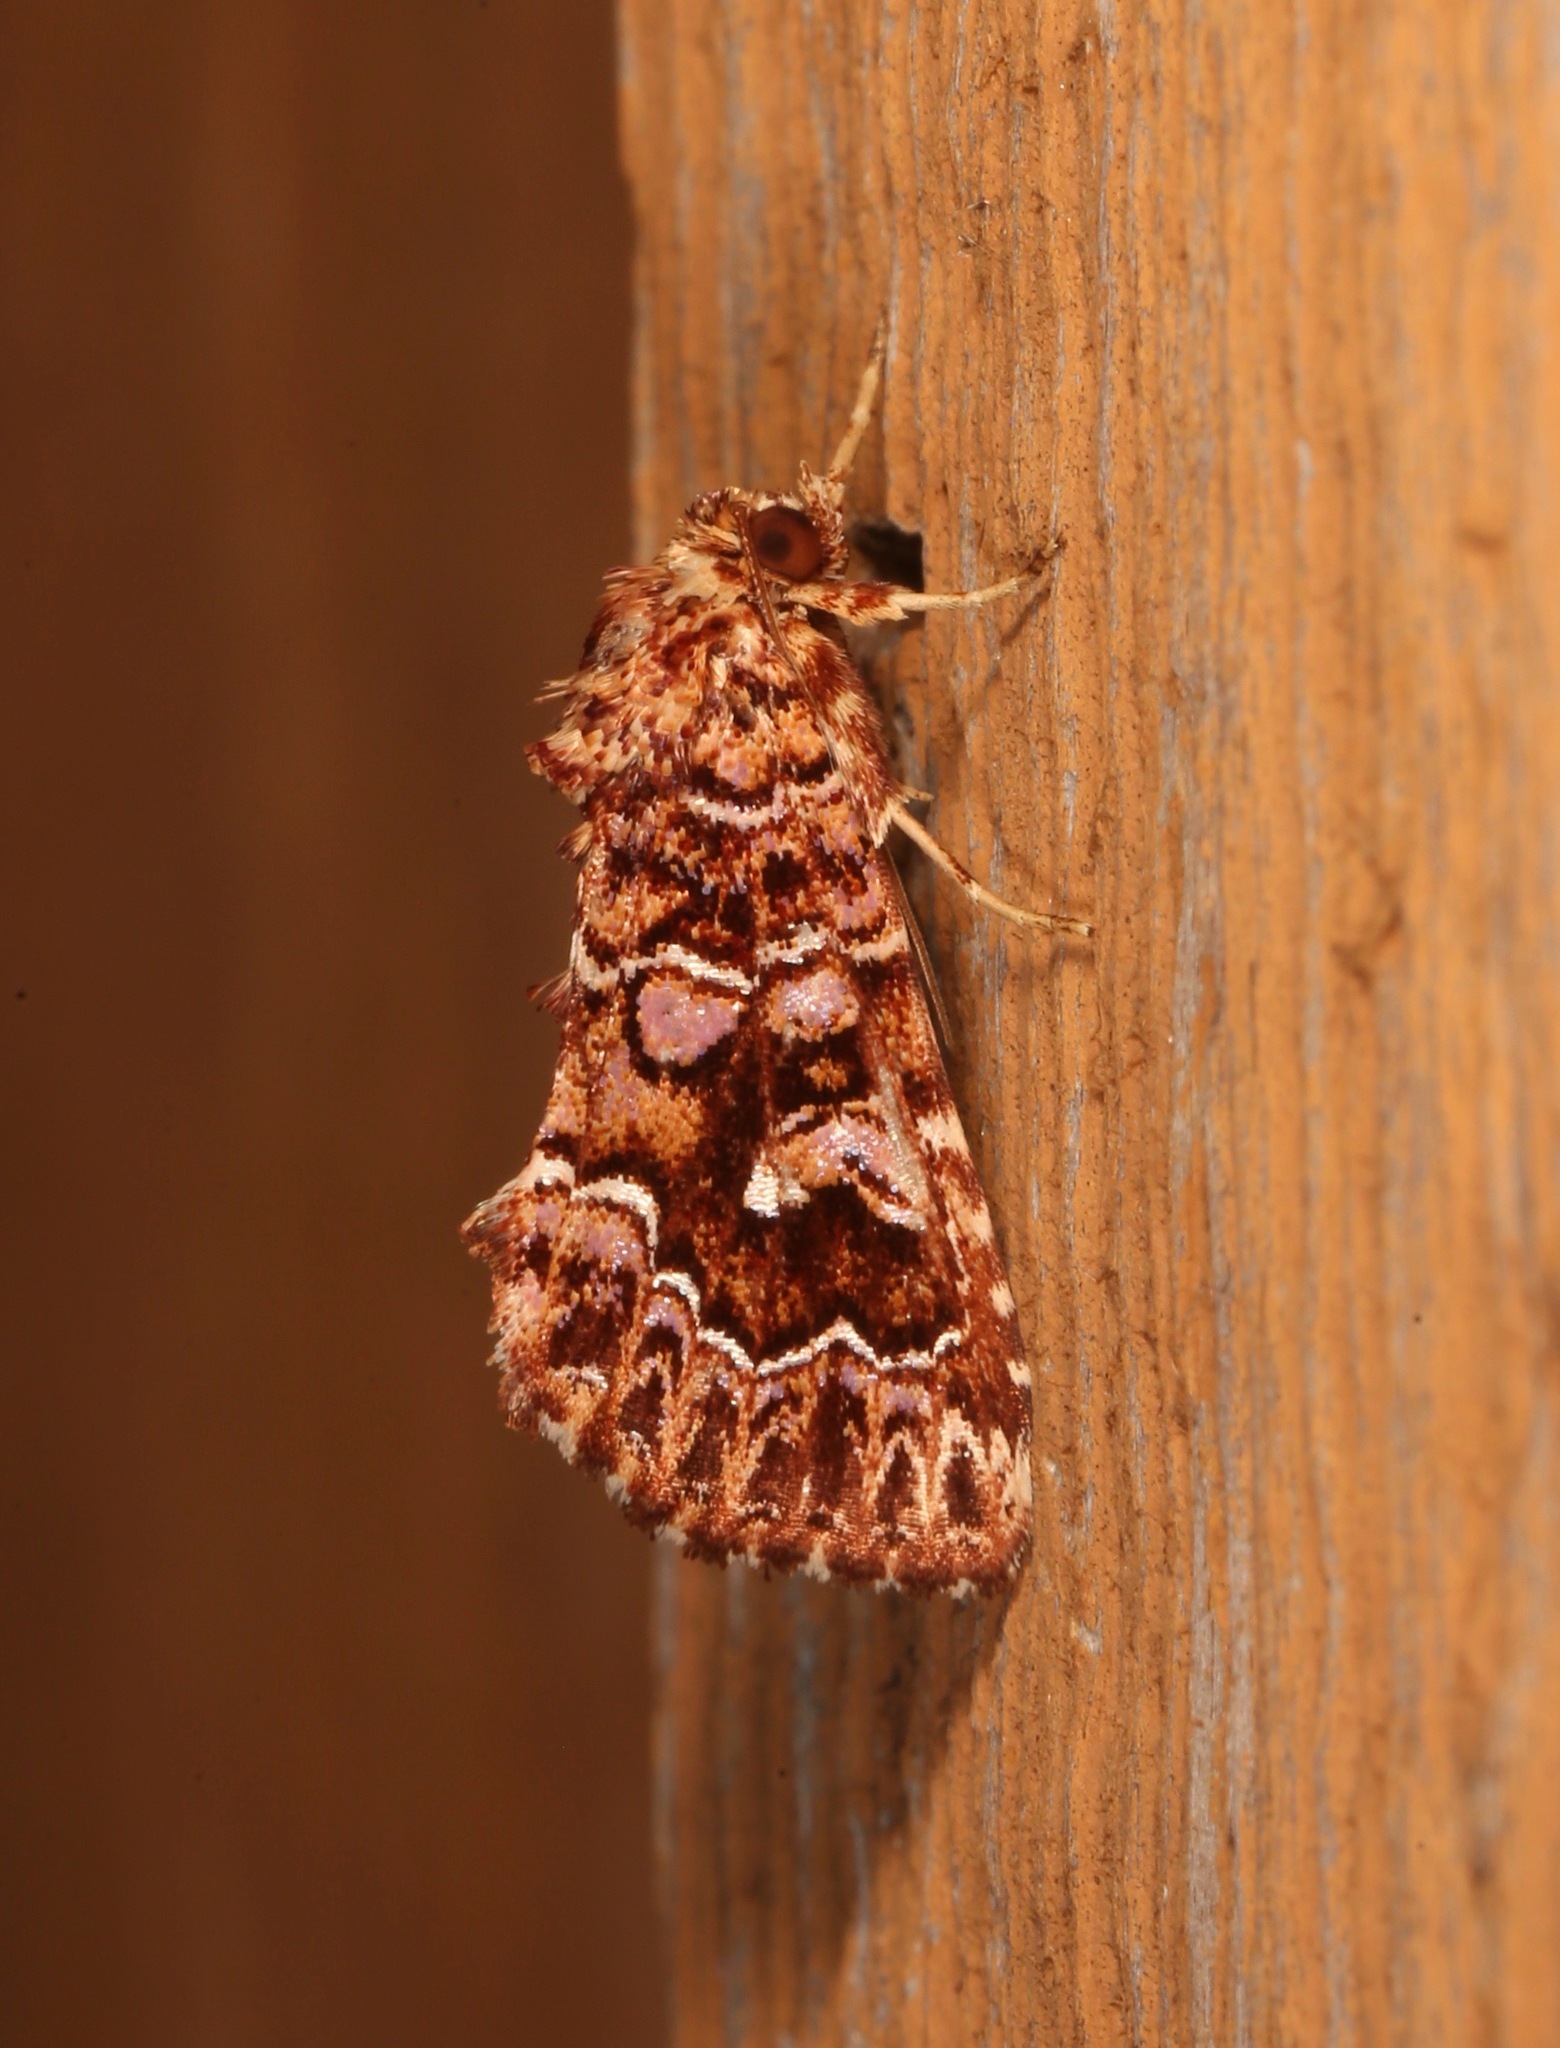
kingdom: Animalia
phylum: Arthropoda
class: Insecta
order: Lepidoptera
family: Noctuidae
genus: Callopistria
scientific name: Callopistria granitosa
